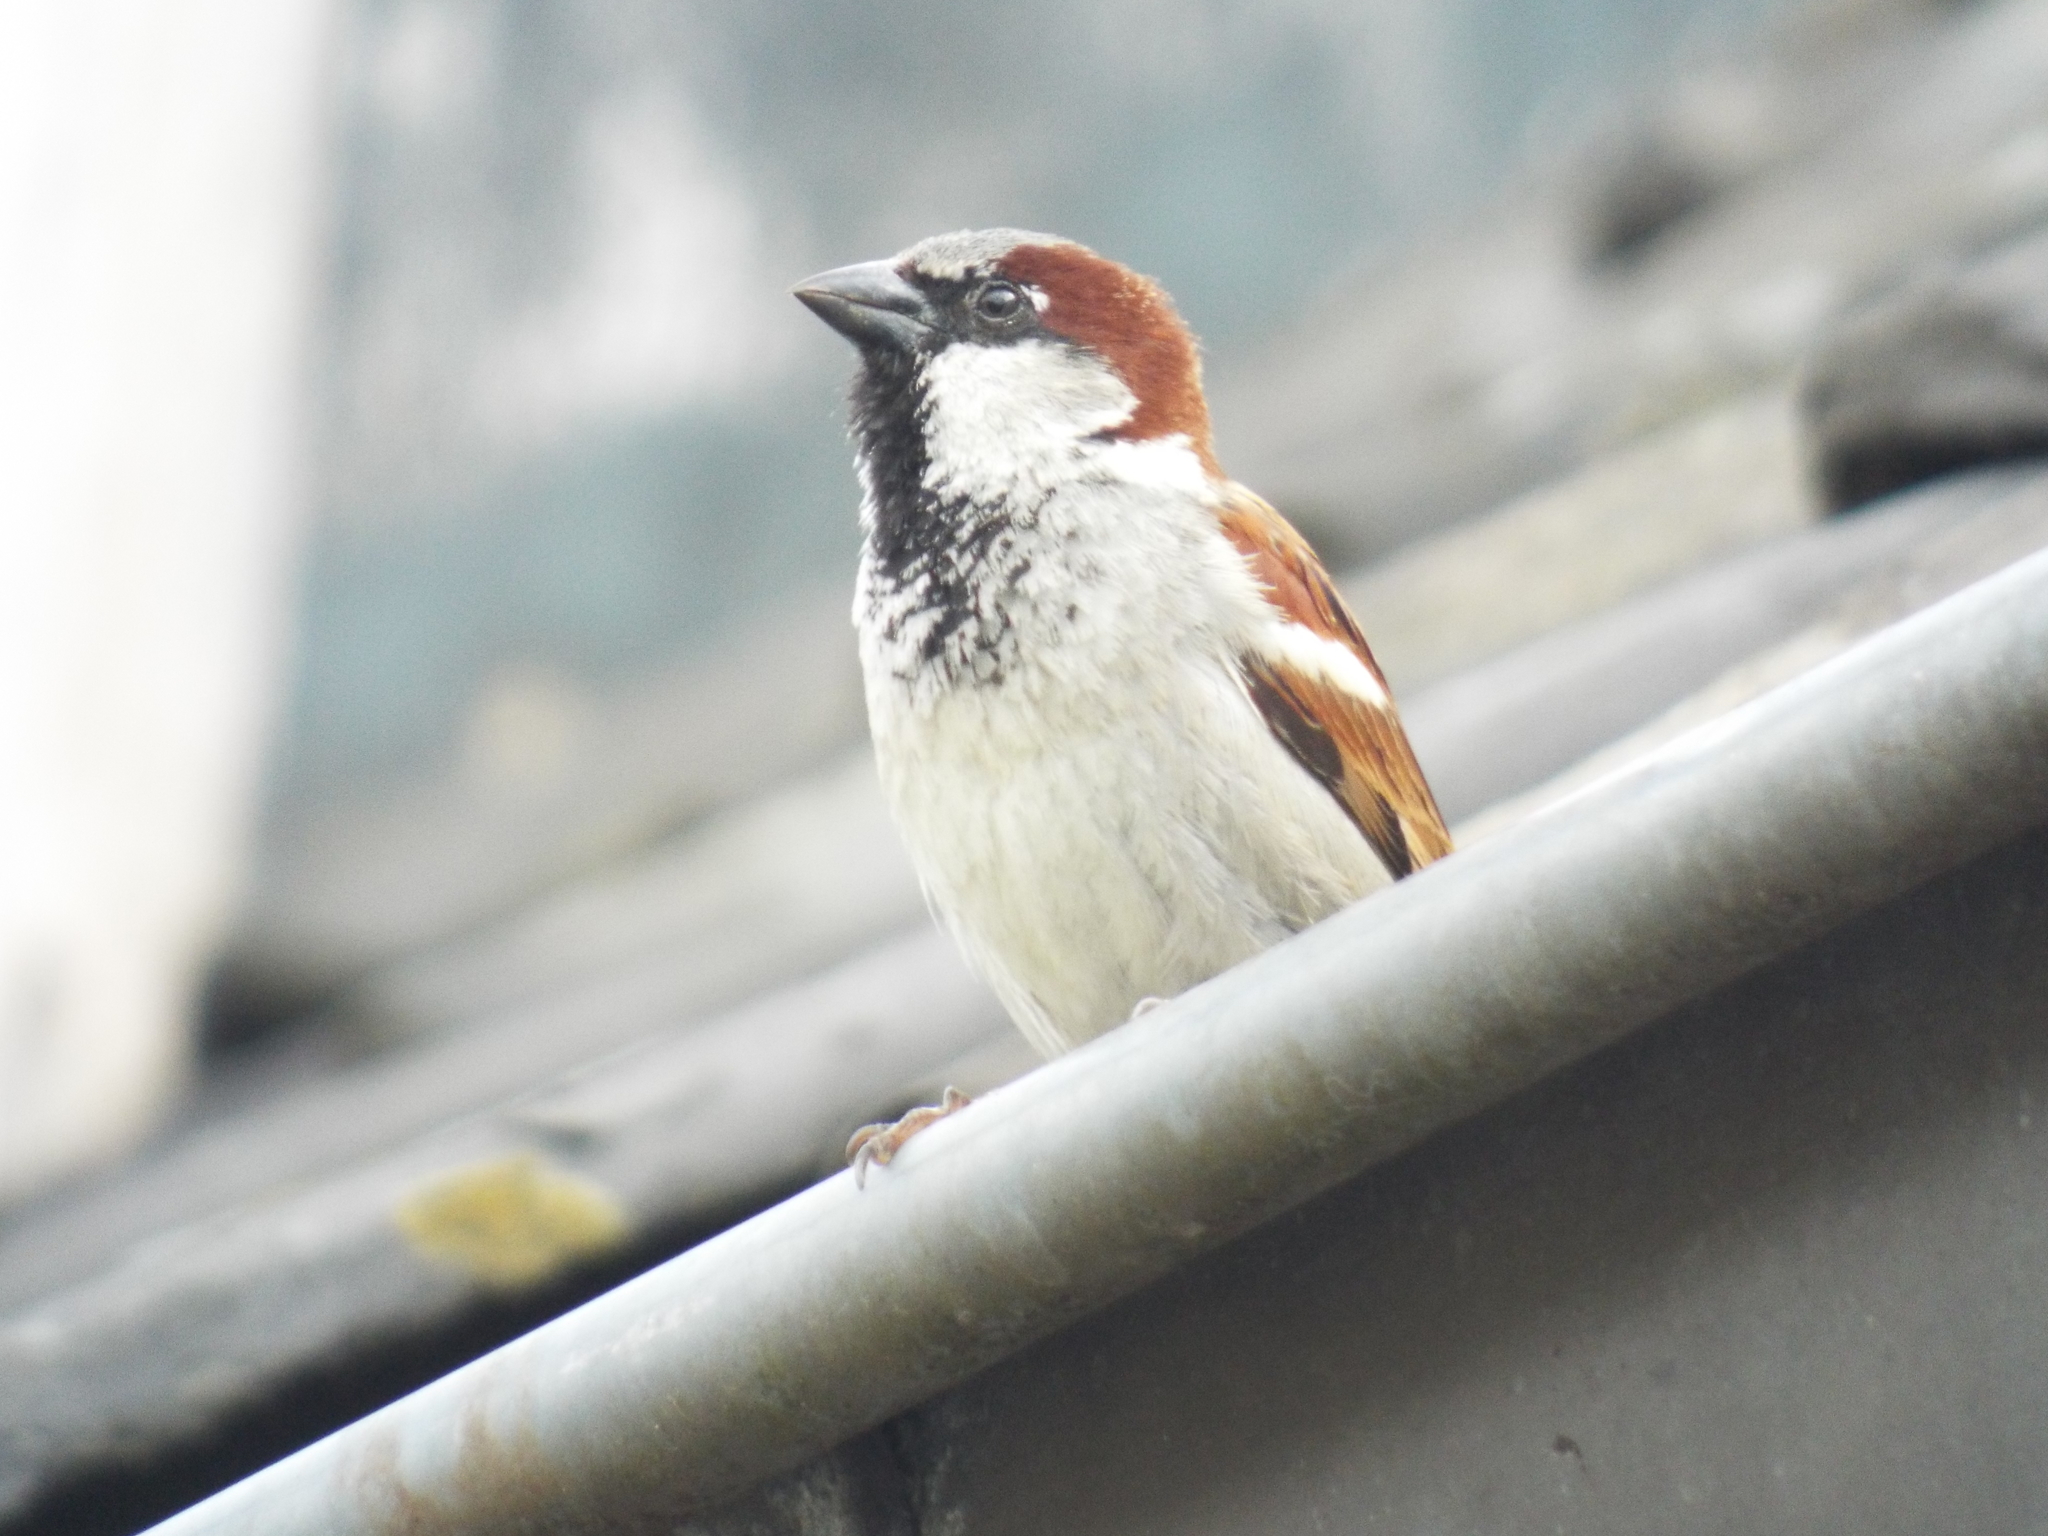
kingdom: Animalia
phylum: Chordata
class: Aves
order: Passeriformes
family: Passeridae
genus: Passer
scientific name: Passer domesticus
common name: House sparrow
